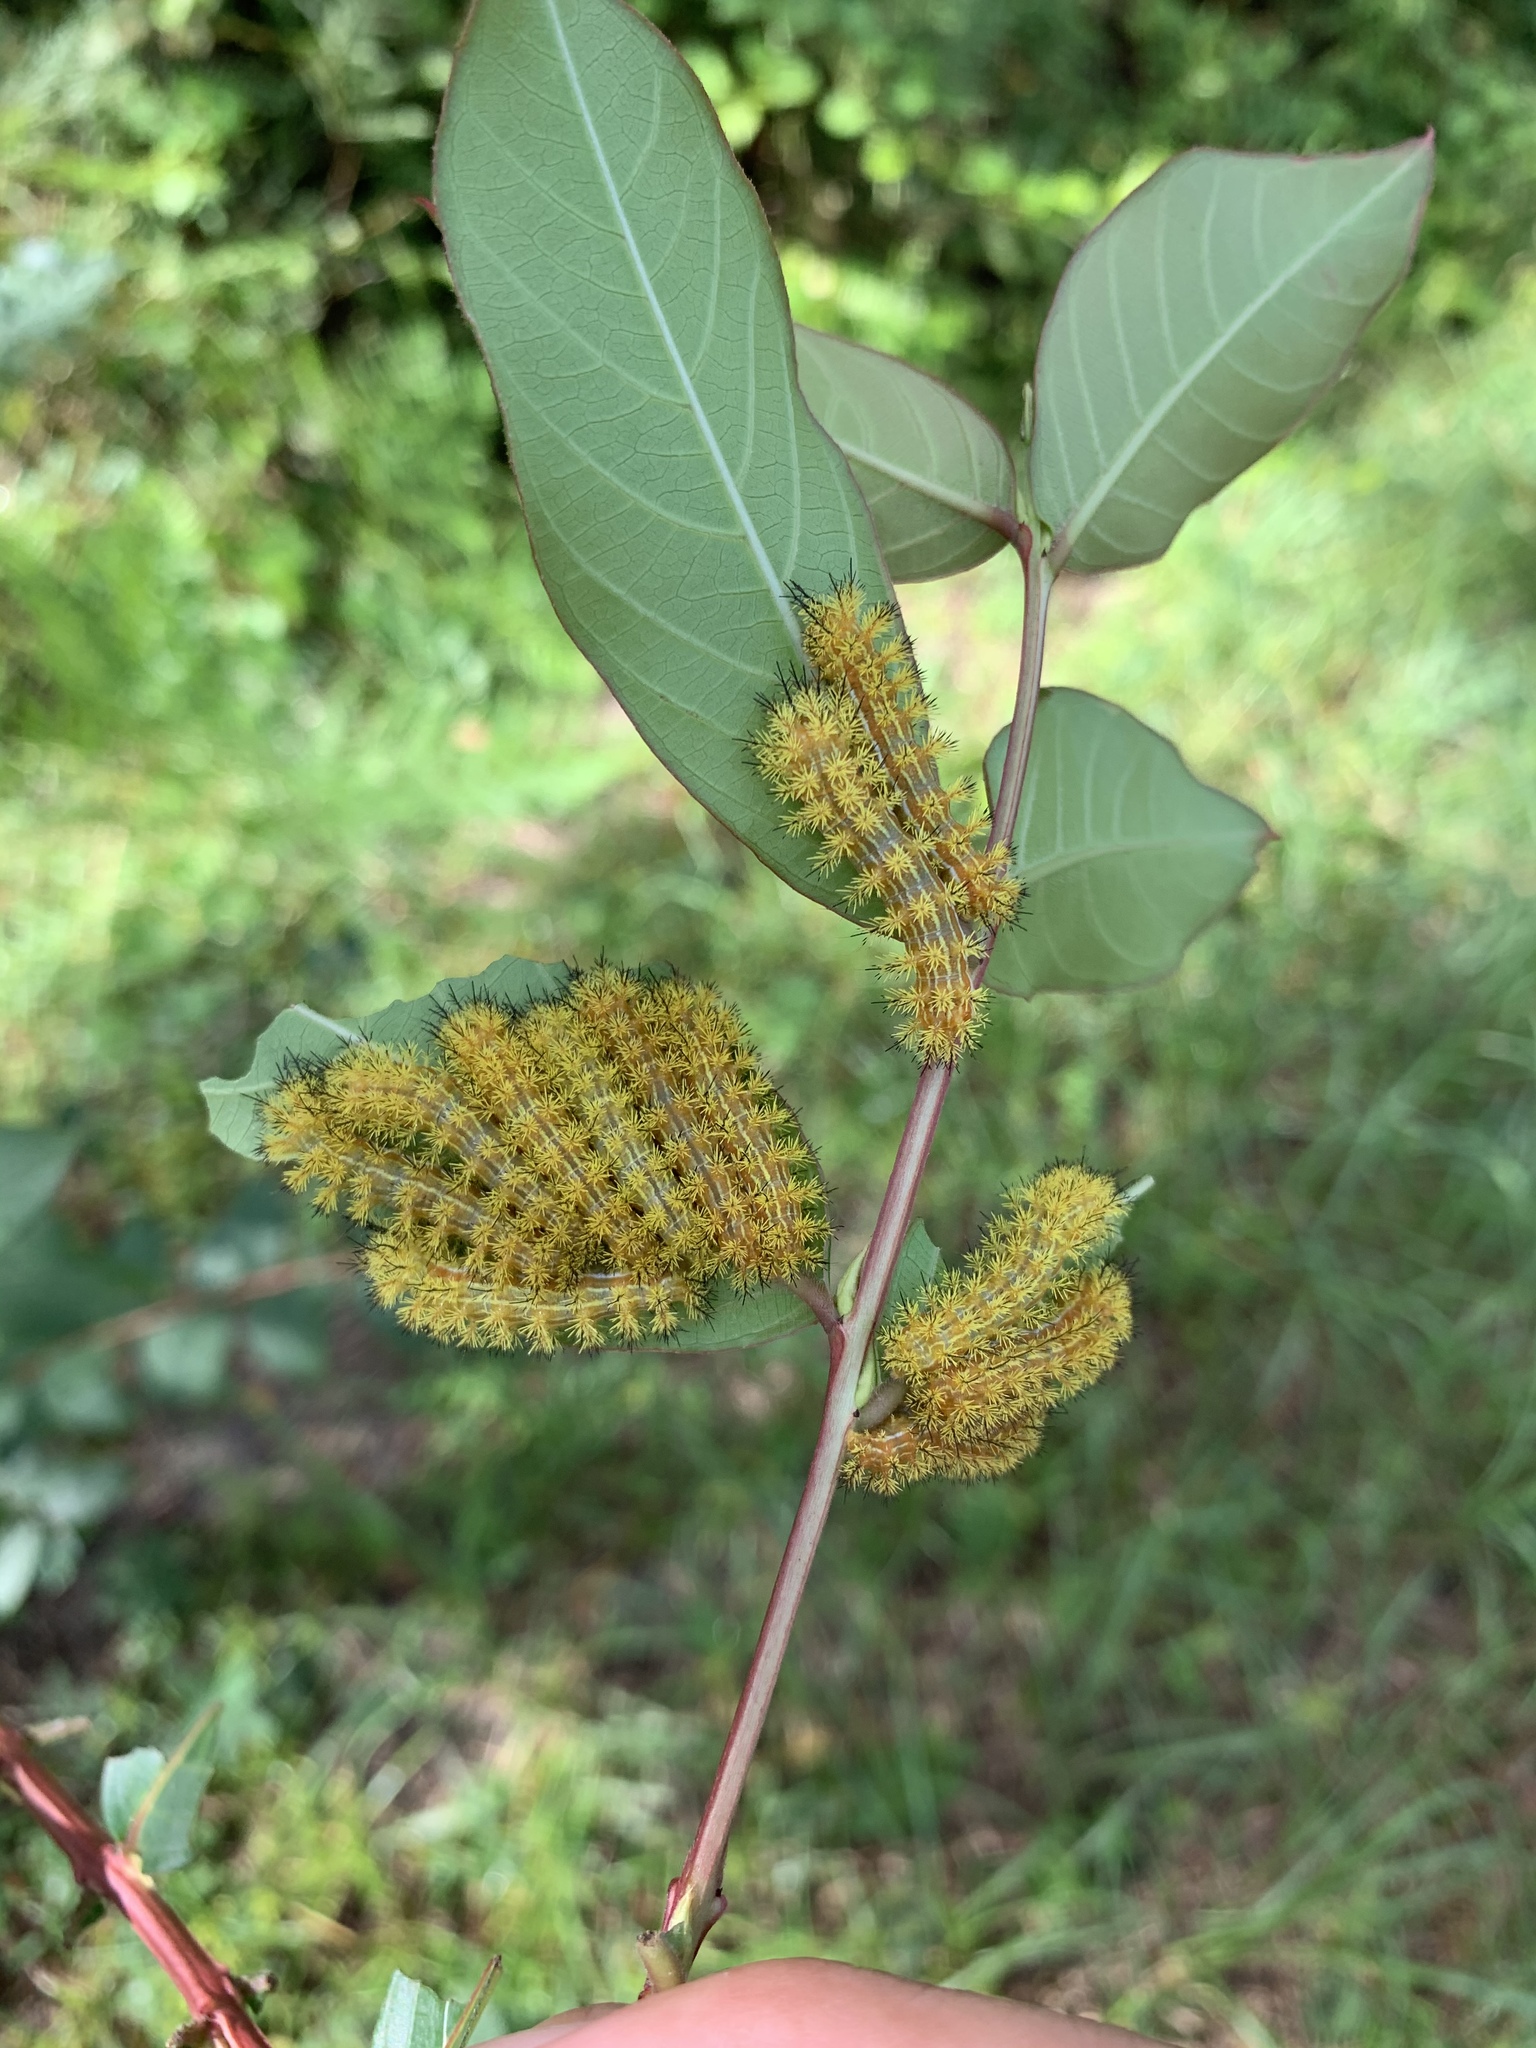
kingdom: Animalia
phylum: Arthropoda
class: Insecta
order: Lepidoptera
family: Saturniidae
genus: Automeris
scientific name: Automeris io
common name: Io moth
